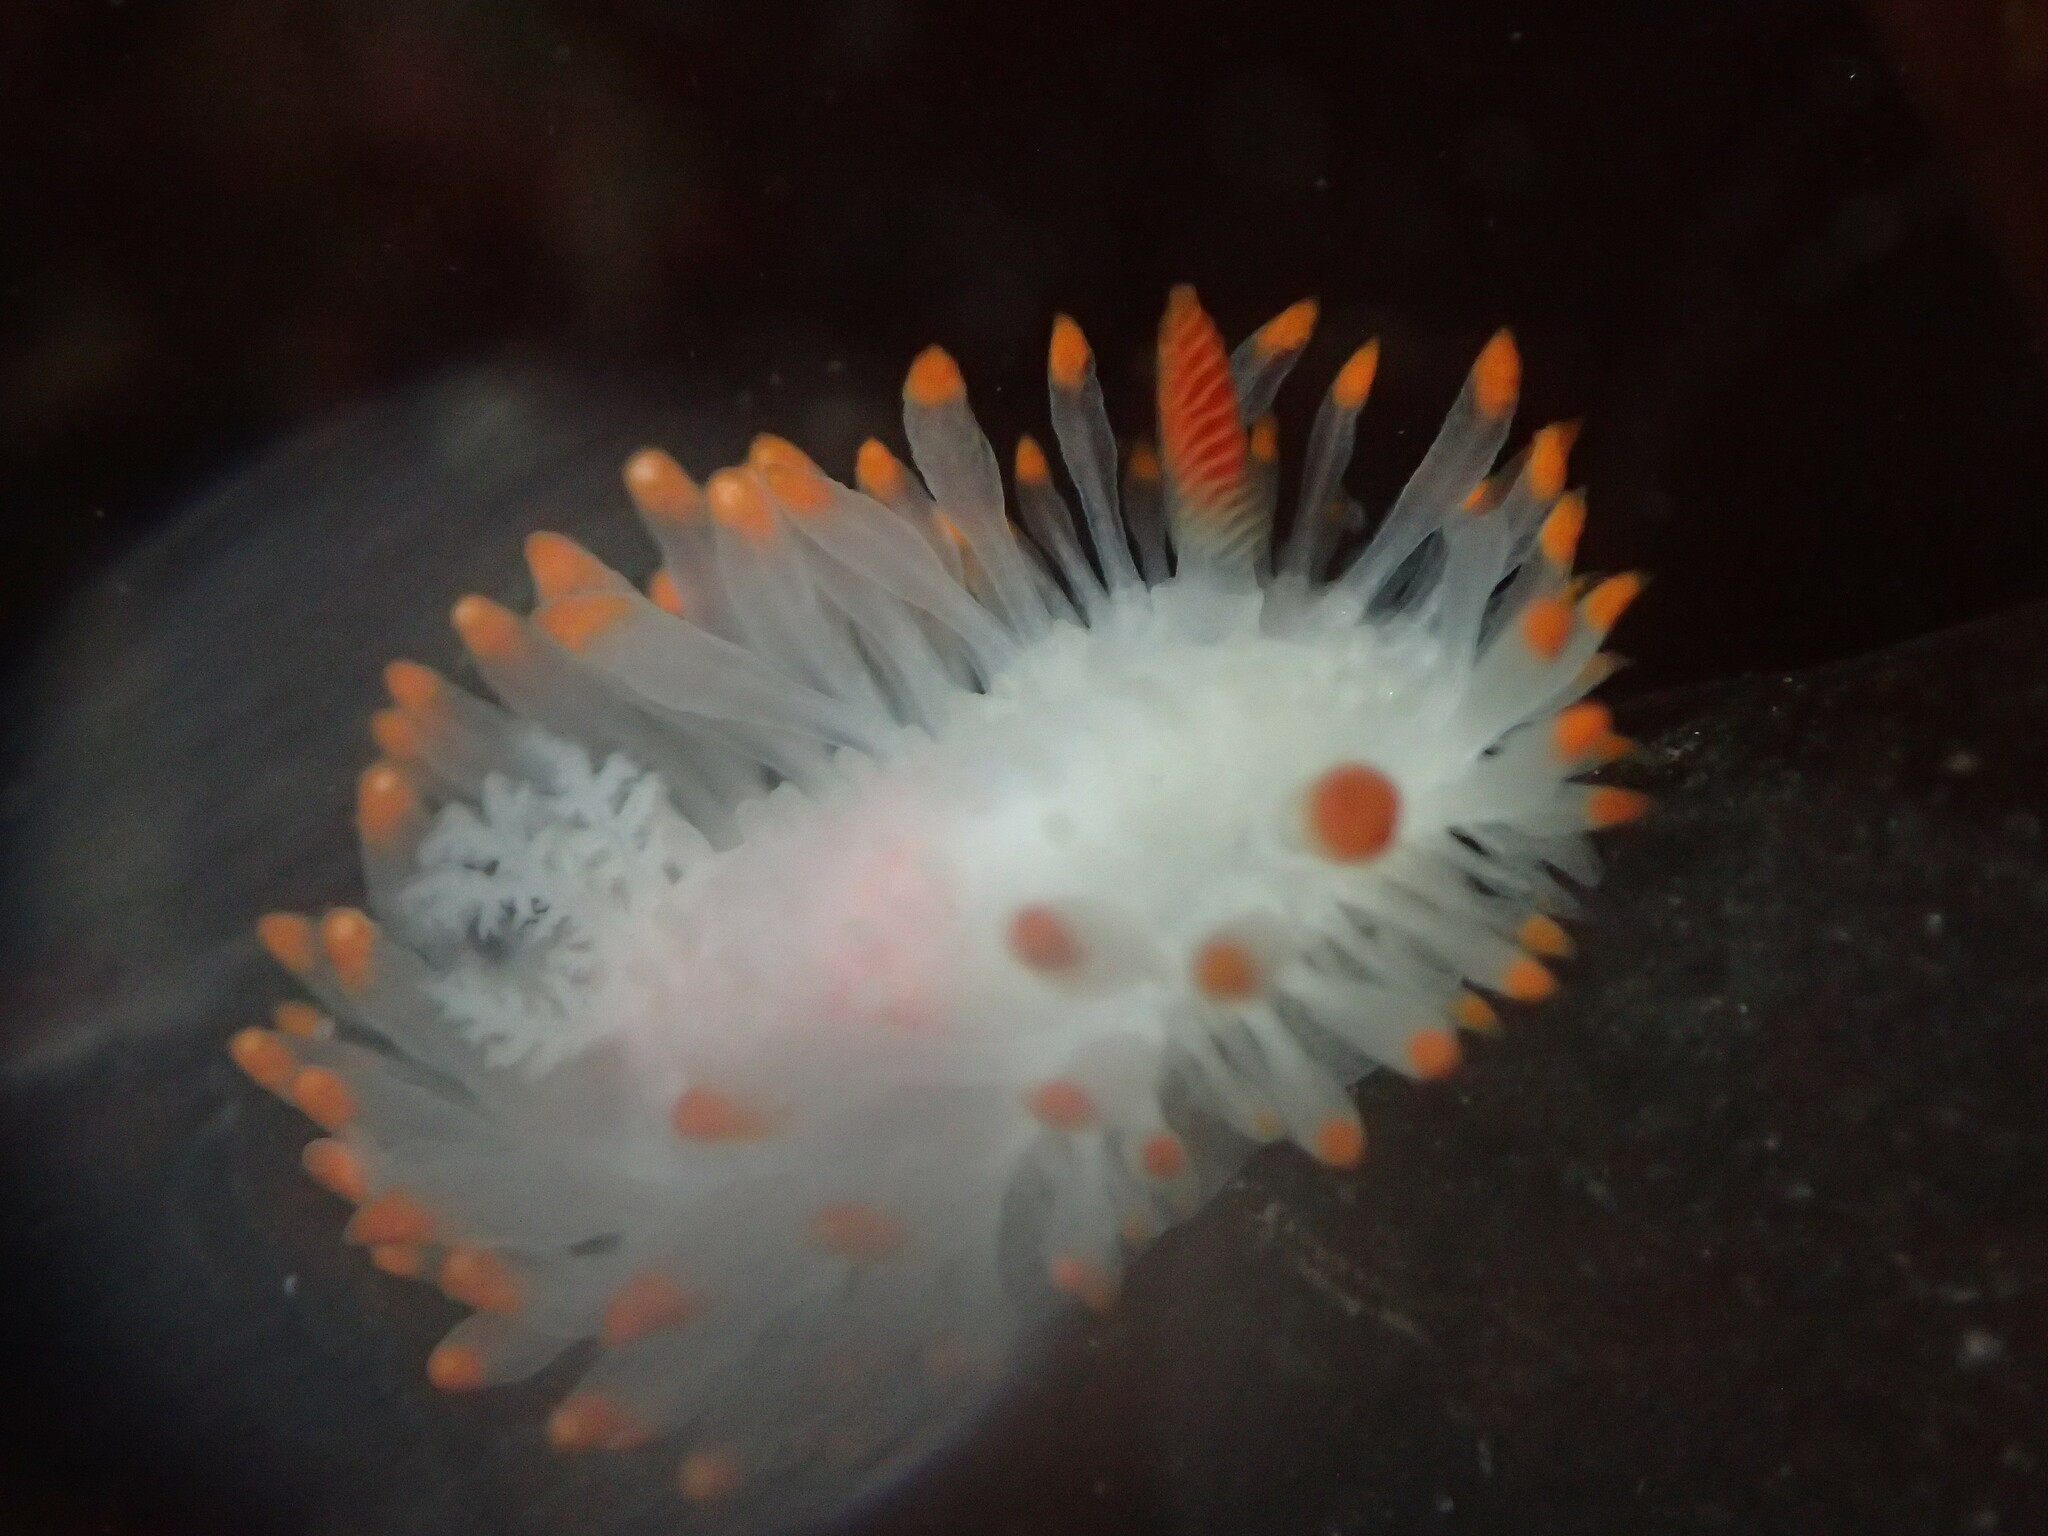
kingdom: Animalia
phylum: Mollusca
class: Gastropoda
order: Nudibranchia
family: Polyceridae
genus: Limacia
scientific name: Limacia cockerelli
